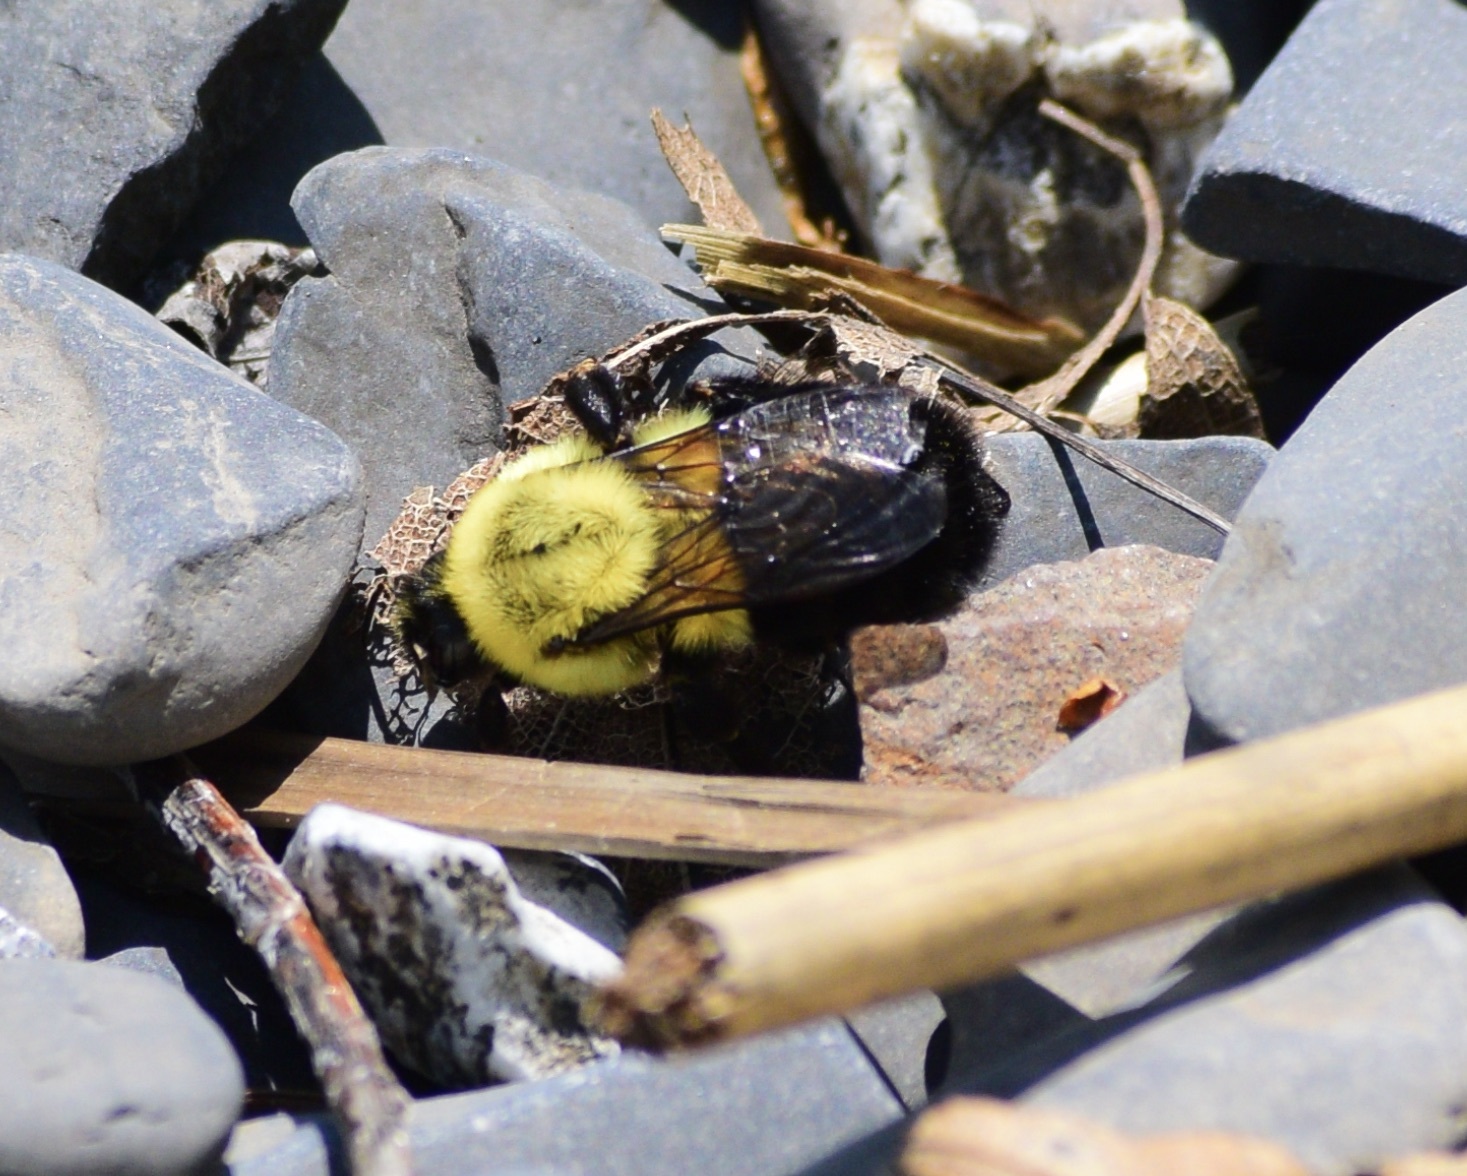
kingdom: Animalia
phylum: Arthropoda
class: Insecta
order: Hymenoptera
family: Apidae
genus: Bombus
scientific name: Bombus impatiens
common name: Common eastern bumble bee
